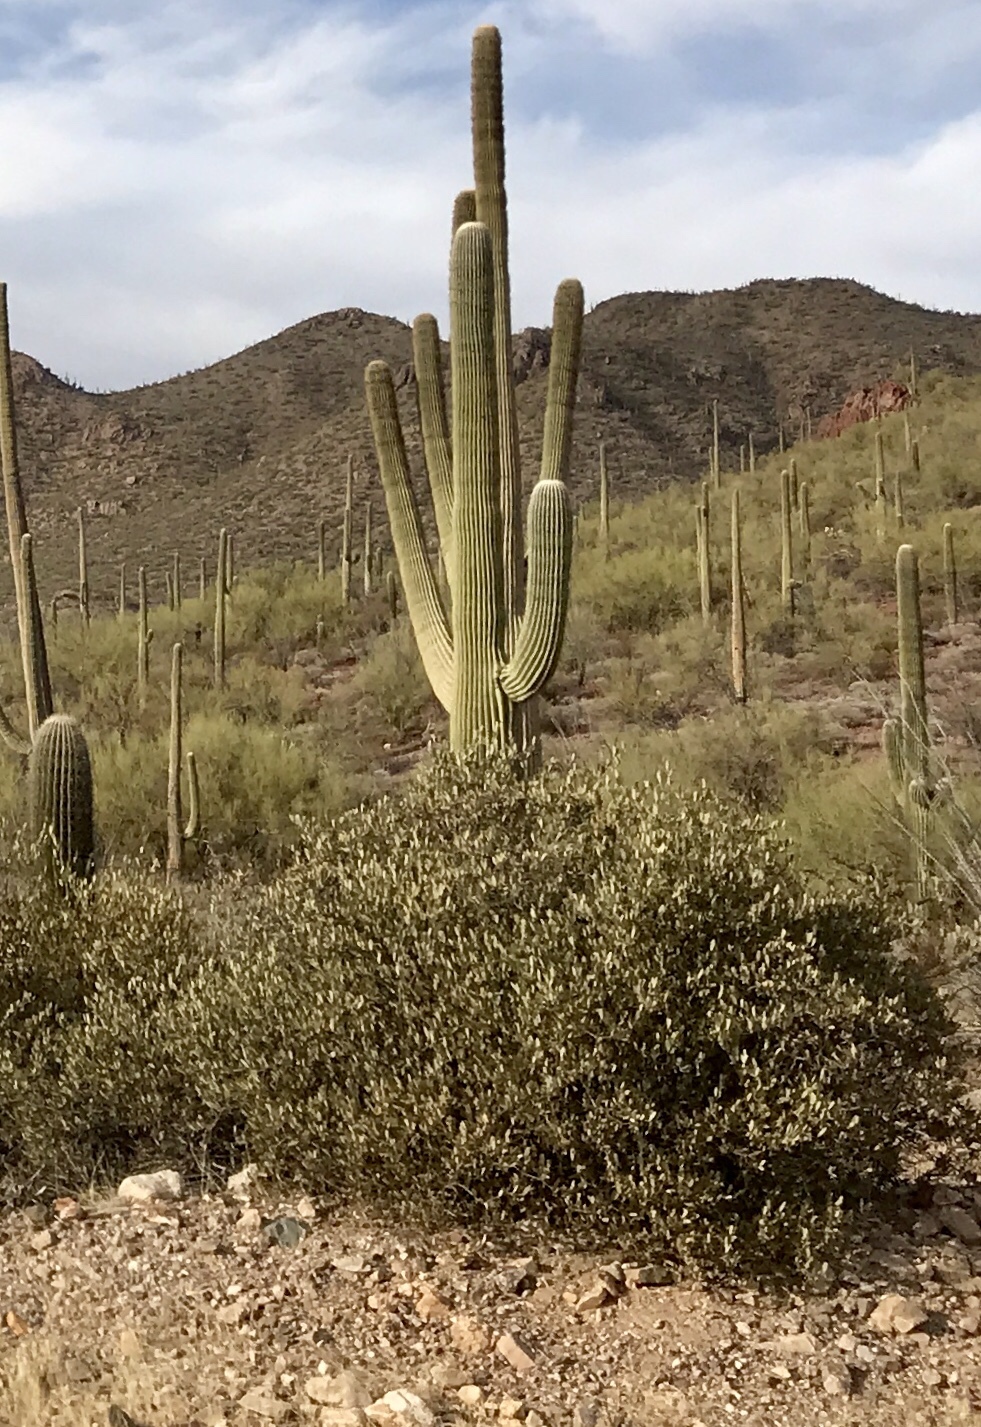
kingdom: Plantae
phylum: Tracheophyta
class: Magnoliopsida
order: Caryophyllales
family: Simmondsiaceae
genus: Simmondsia
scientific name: Simmondsia chinensis
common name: Jojoba
